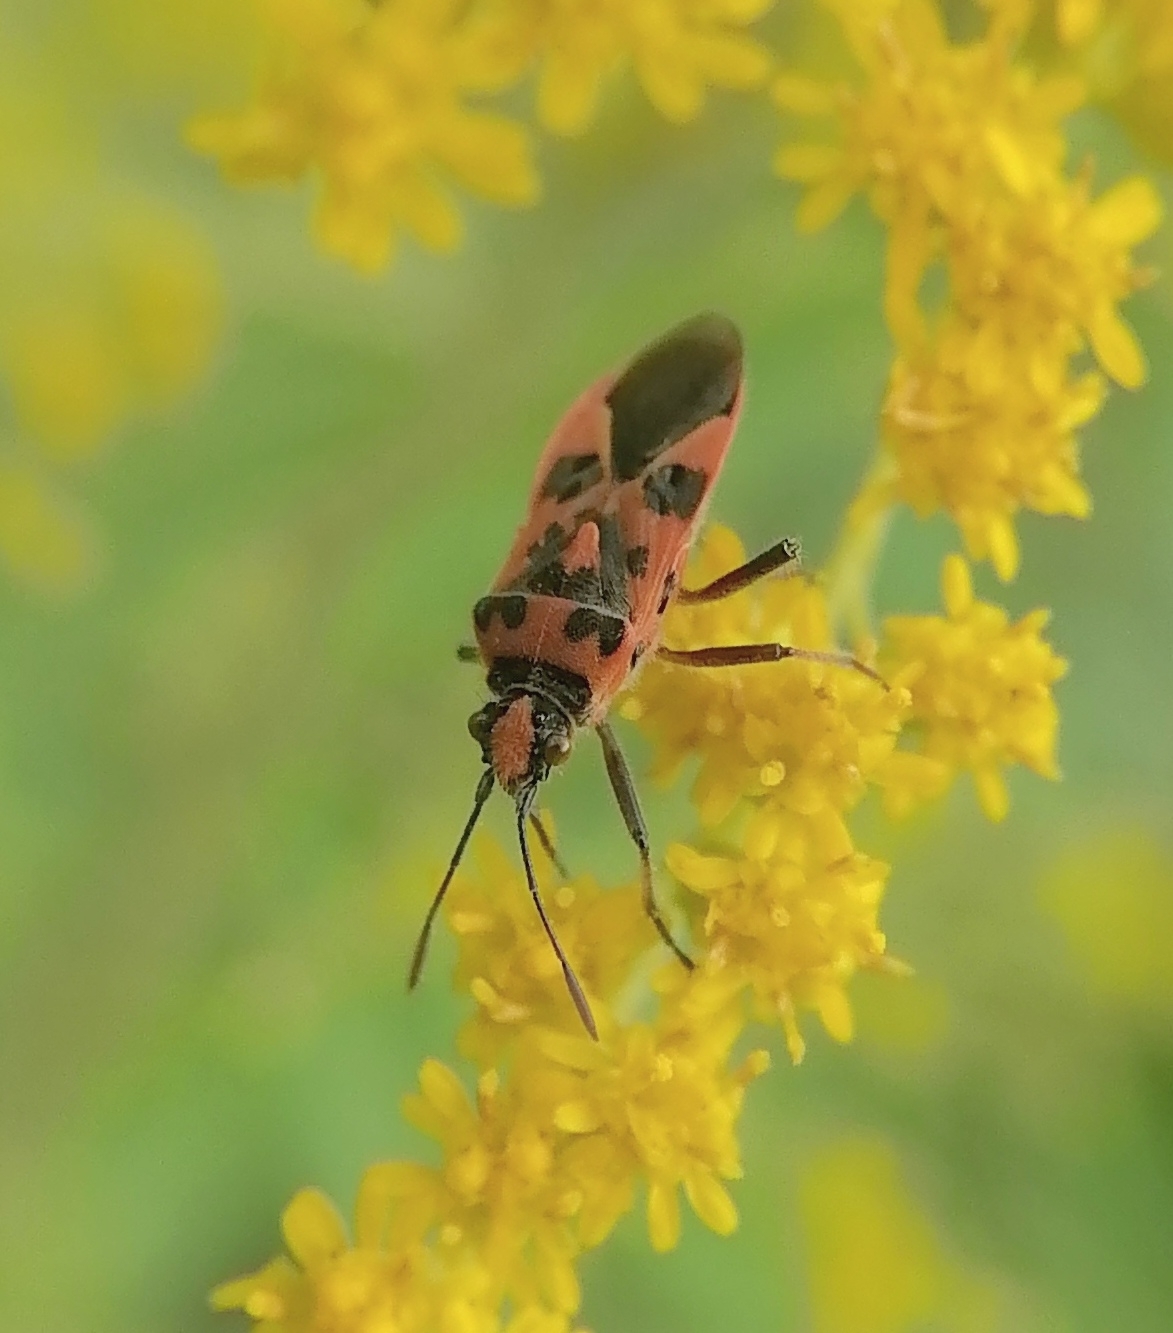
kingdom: Animalia
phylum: Arthropoda
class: Insecta
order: Hemiptera
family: Rhopalidae
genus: Corizus
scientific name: Corizus hyoscyami
